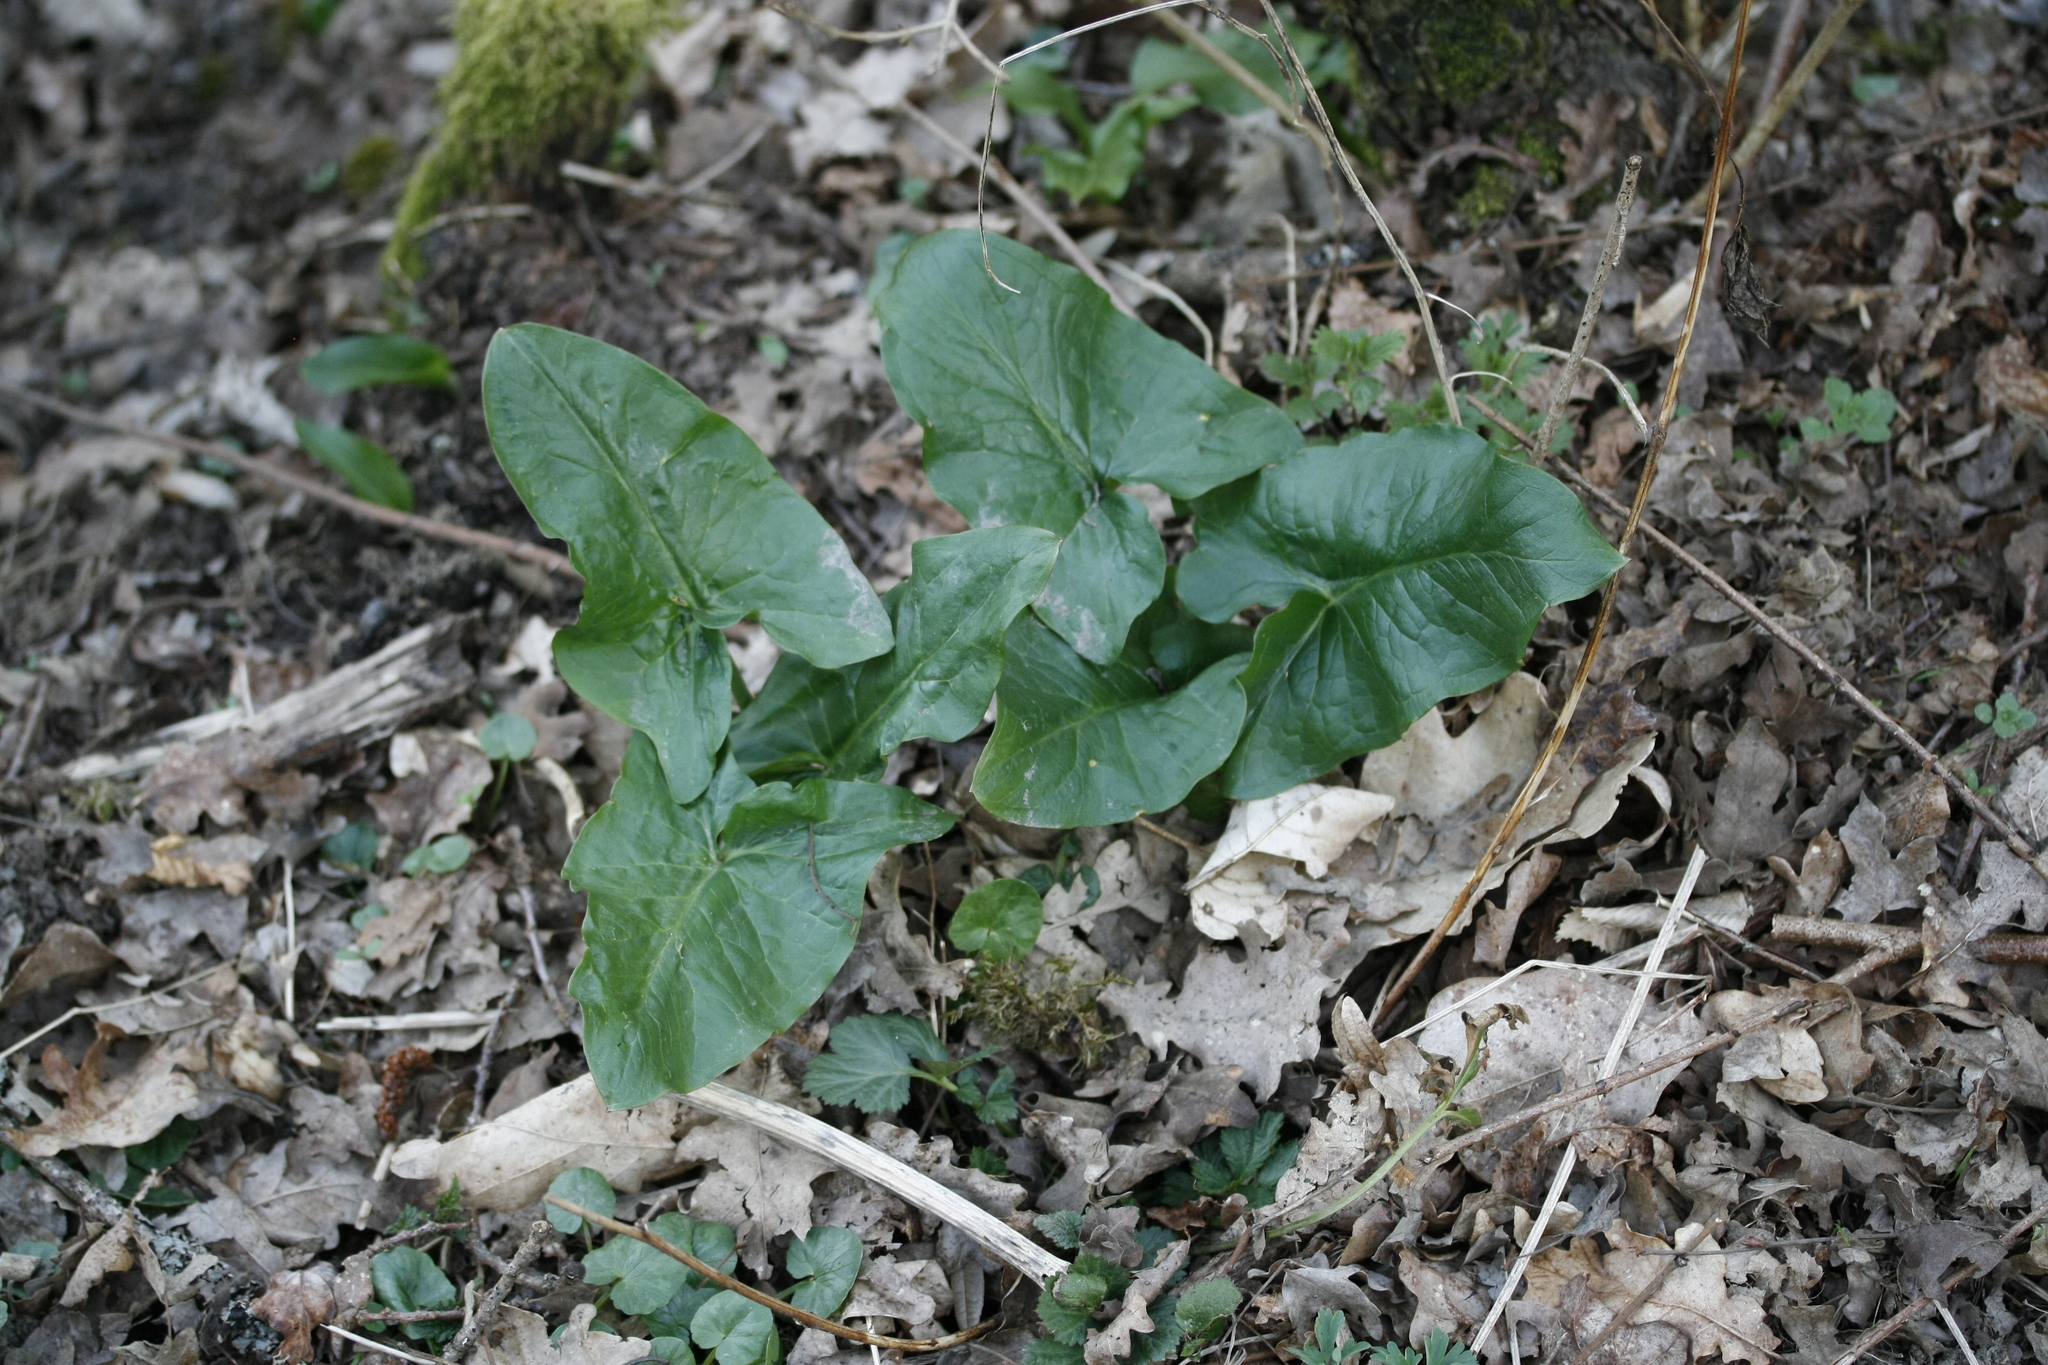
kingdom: Plantae
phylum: Tracheophyta
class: Liliopsida
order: Alismatales
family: Araceae
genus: Arum
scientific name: Arum maculatum
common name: Lords-and-ladies
